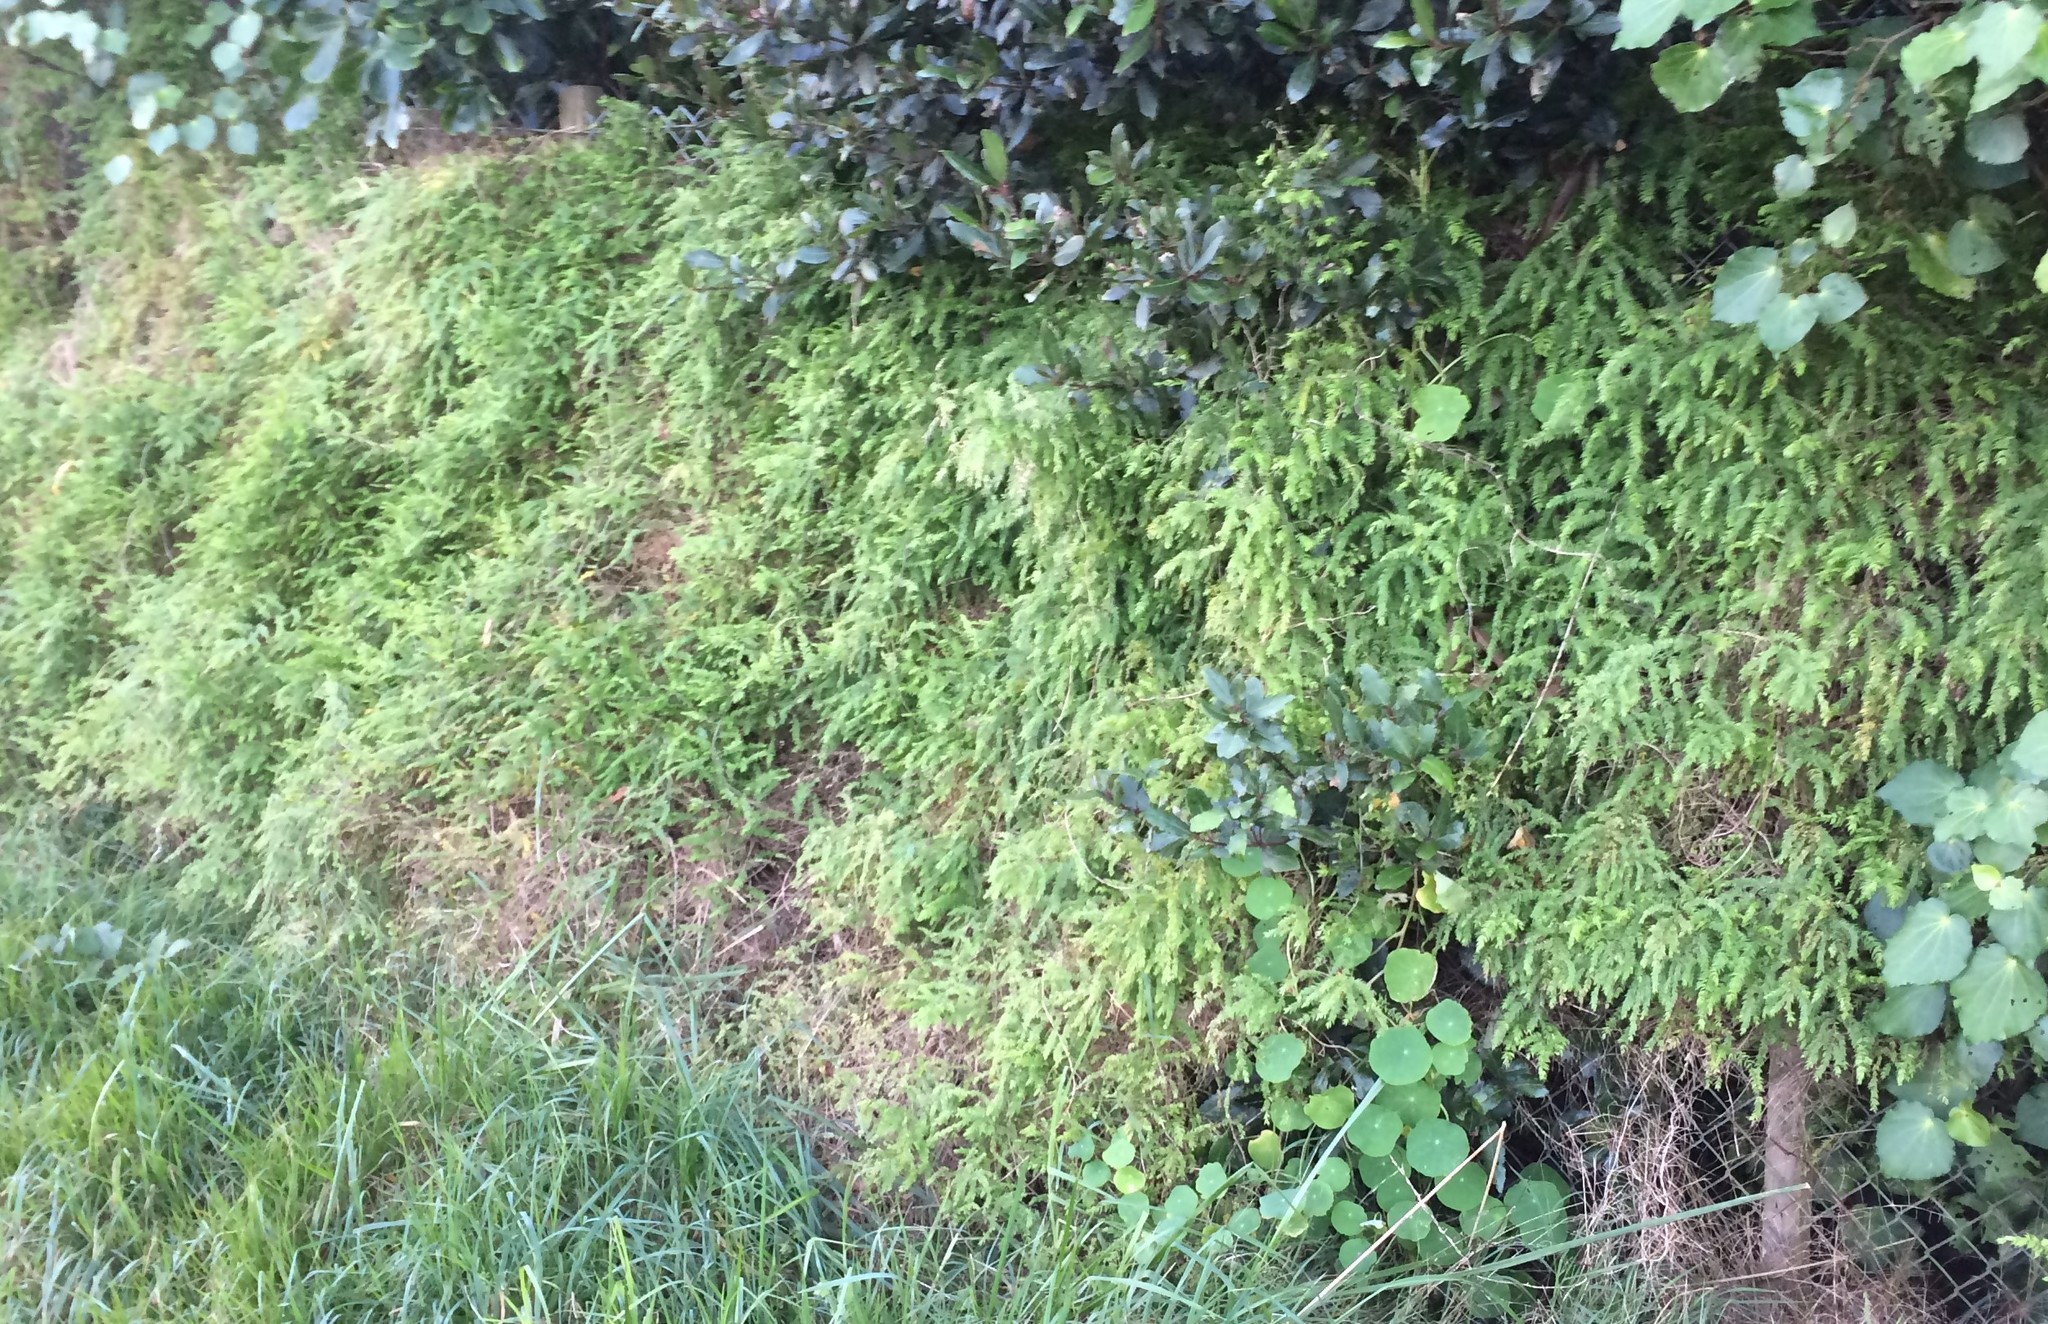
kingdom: Plantae
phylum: Tracheophyta
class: Liliopsida
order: Asparagales
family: Asparagaceae
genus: Asparagus
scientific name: Asparagus scandens
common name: Asparagus-fern
